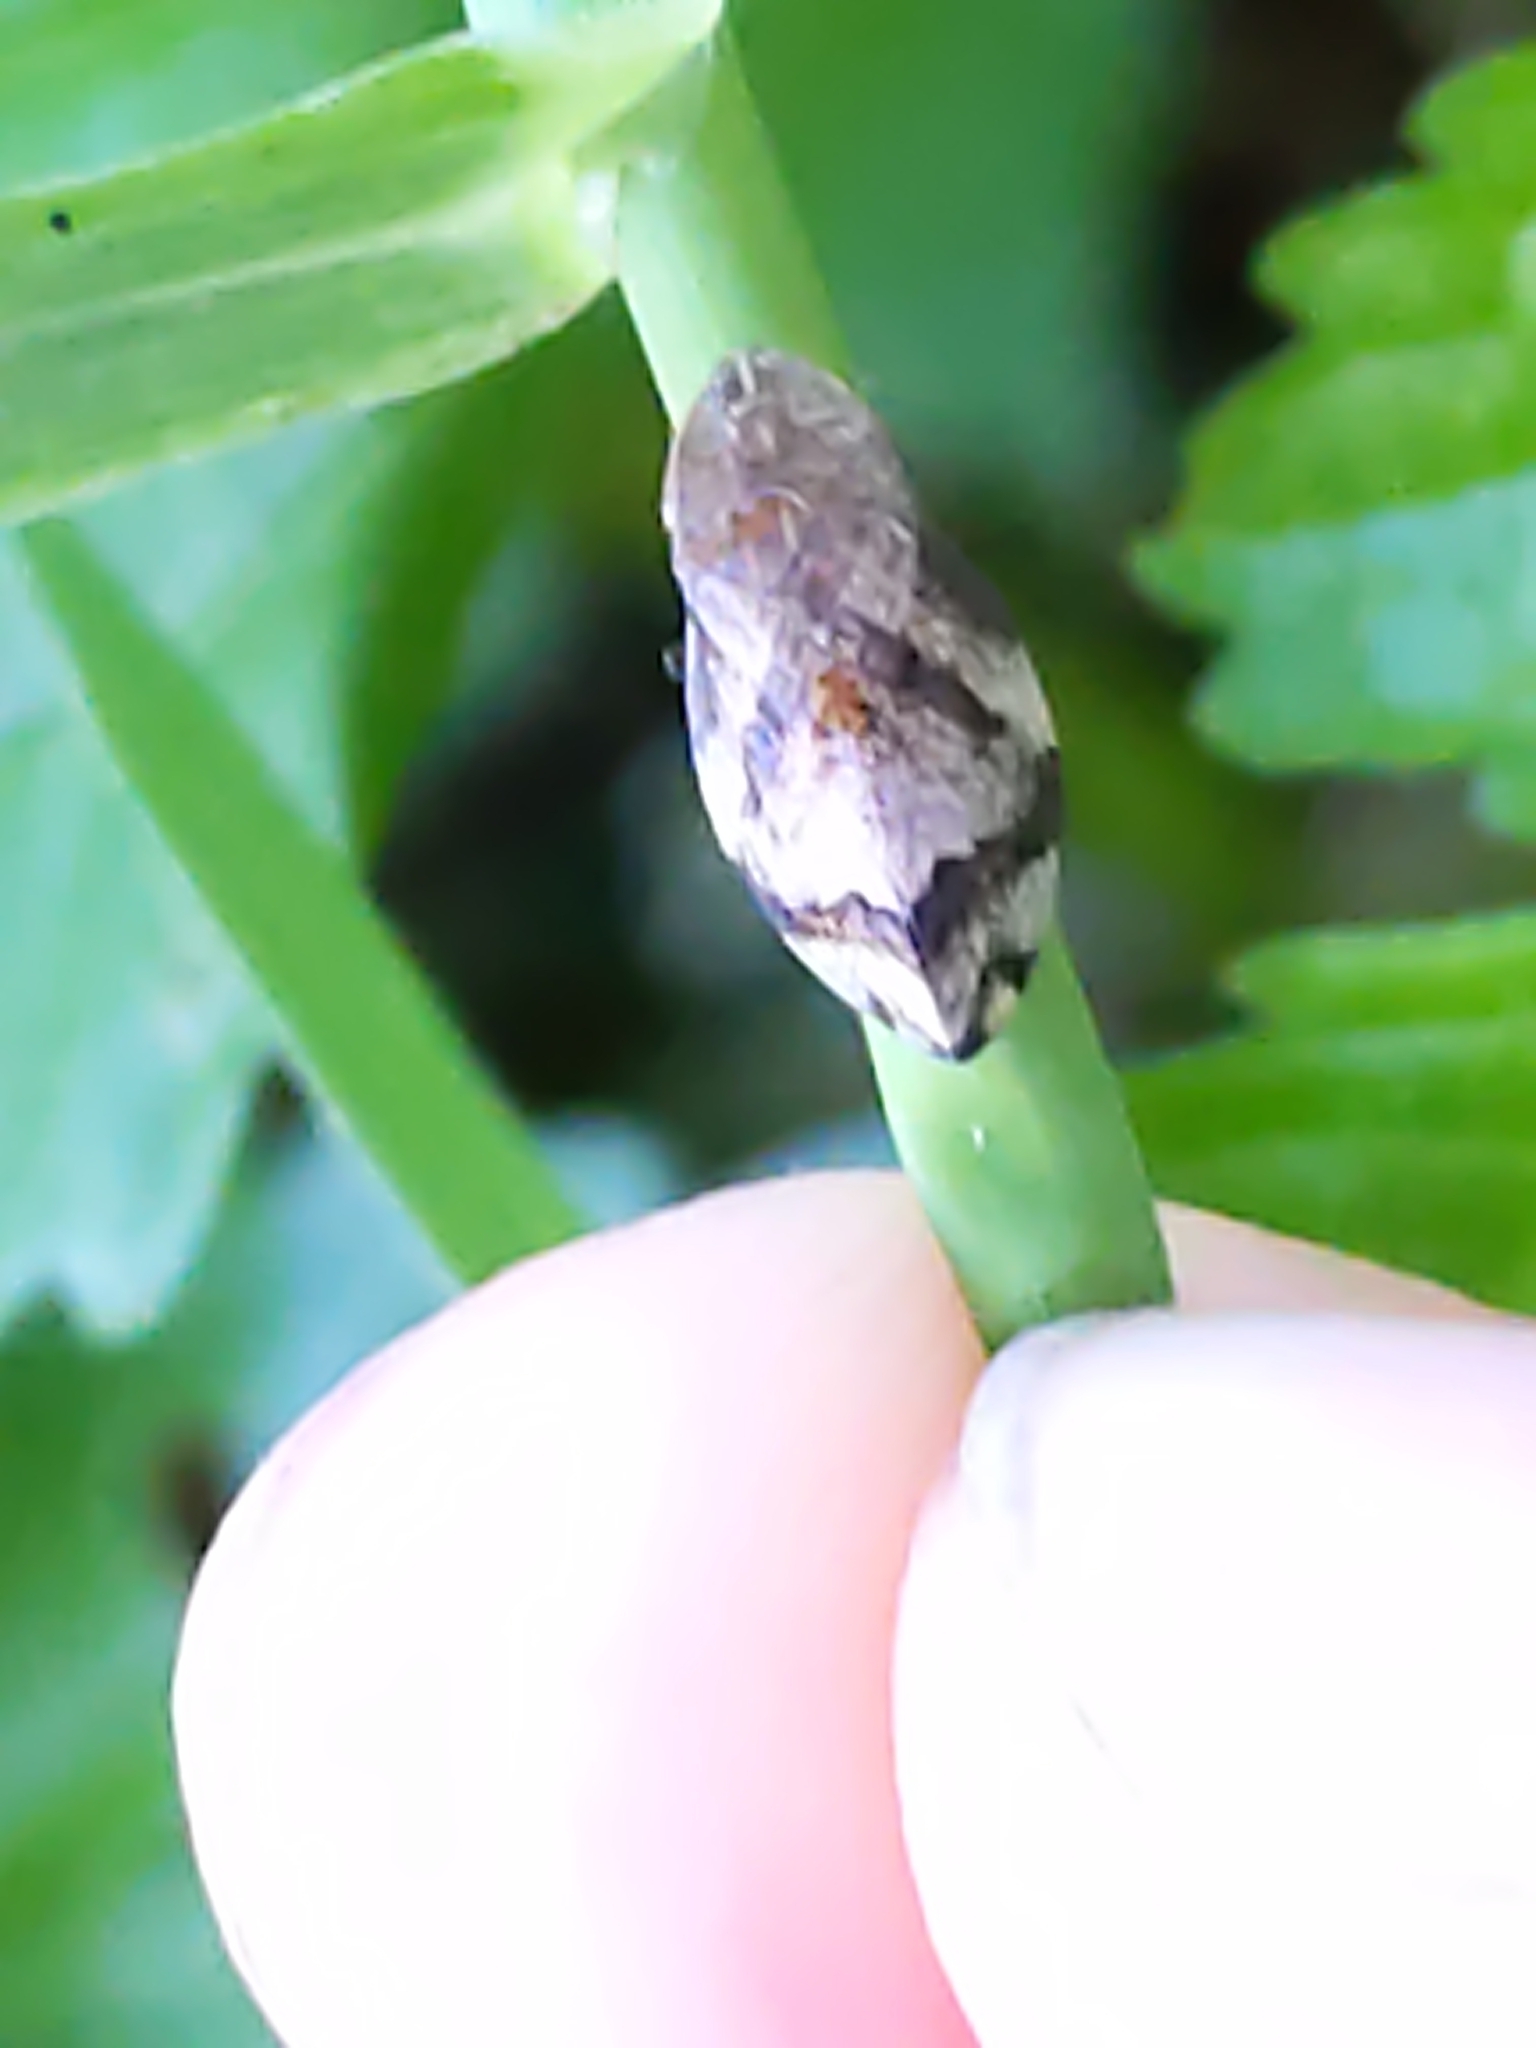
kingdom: Animalia
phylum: Arthropoda
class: Insecta
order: Hemiptera
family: Aphrophoridae
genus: Lepyronia
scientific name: Lepyronia quadrangularis
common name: Diamond-backed spittlebug
